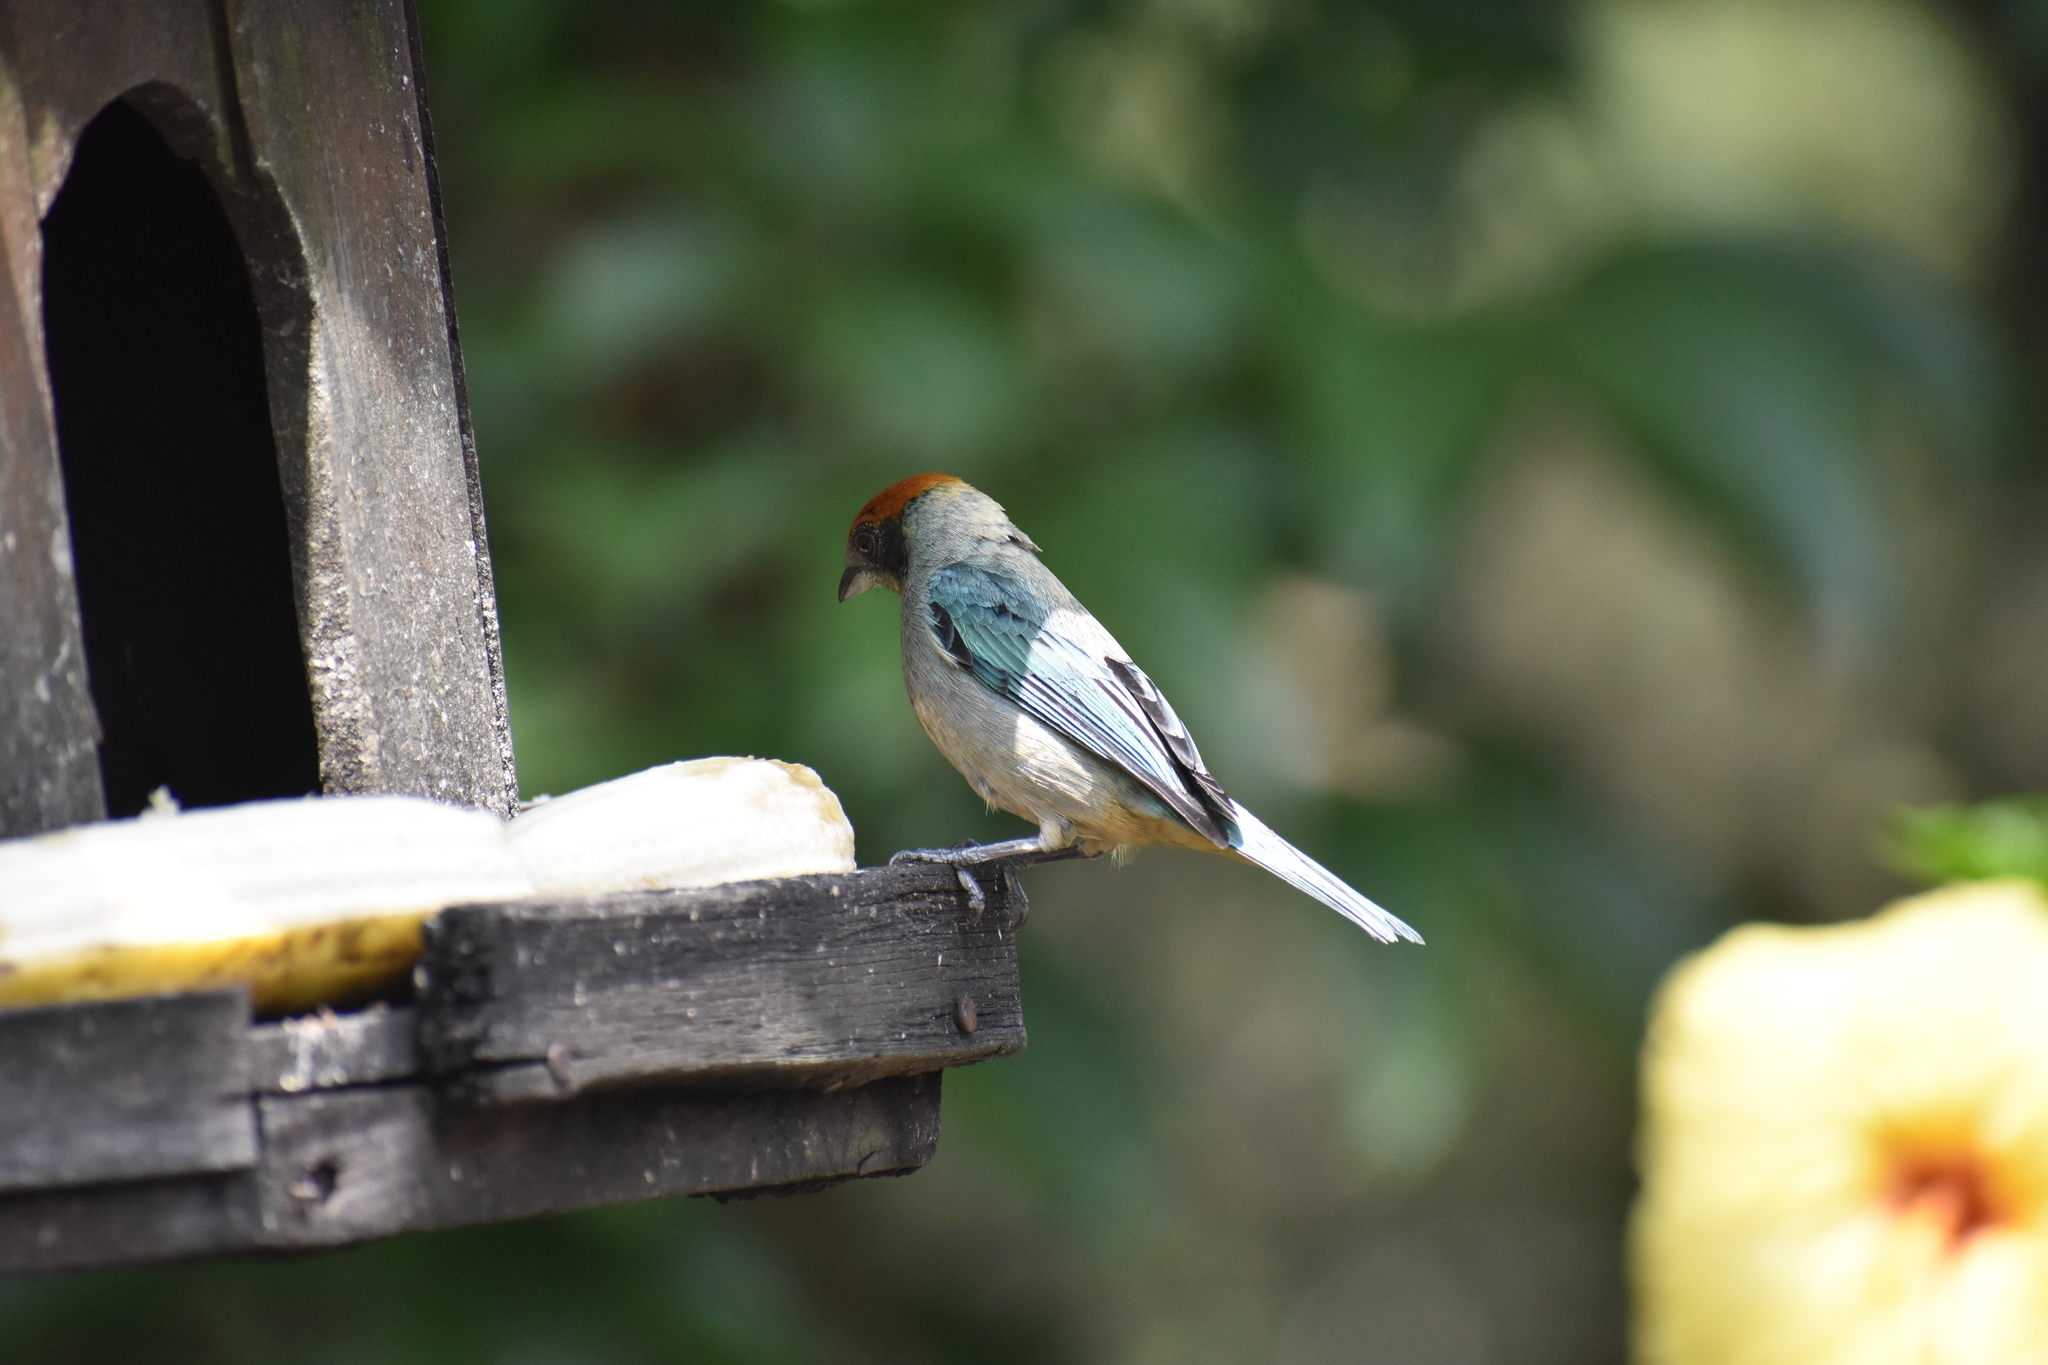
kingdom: Animalia
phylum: Chordata
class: Aves
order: Passeriformes
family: Thraupidae
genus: Stilpnia
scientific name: Stilpnia vitriolina
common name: Scrub tanager
